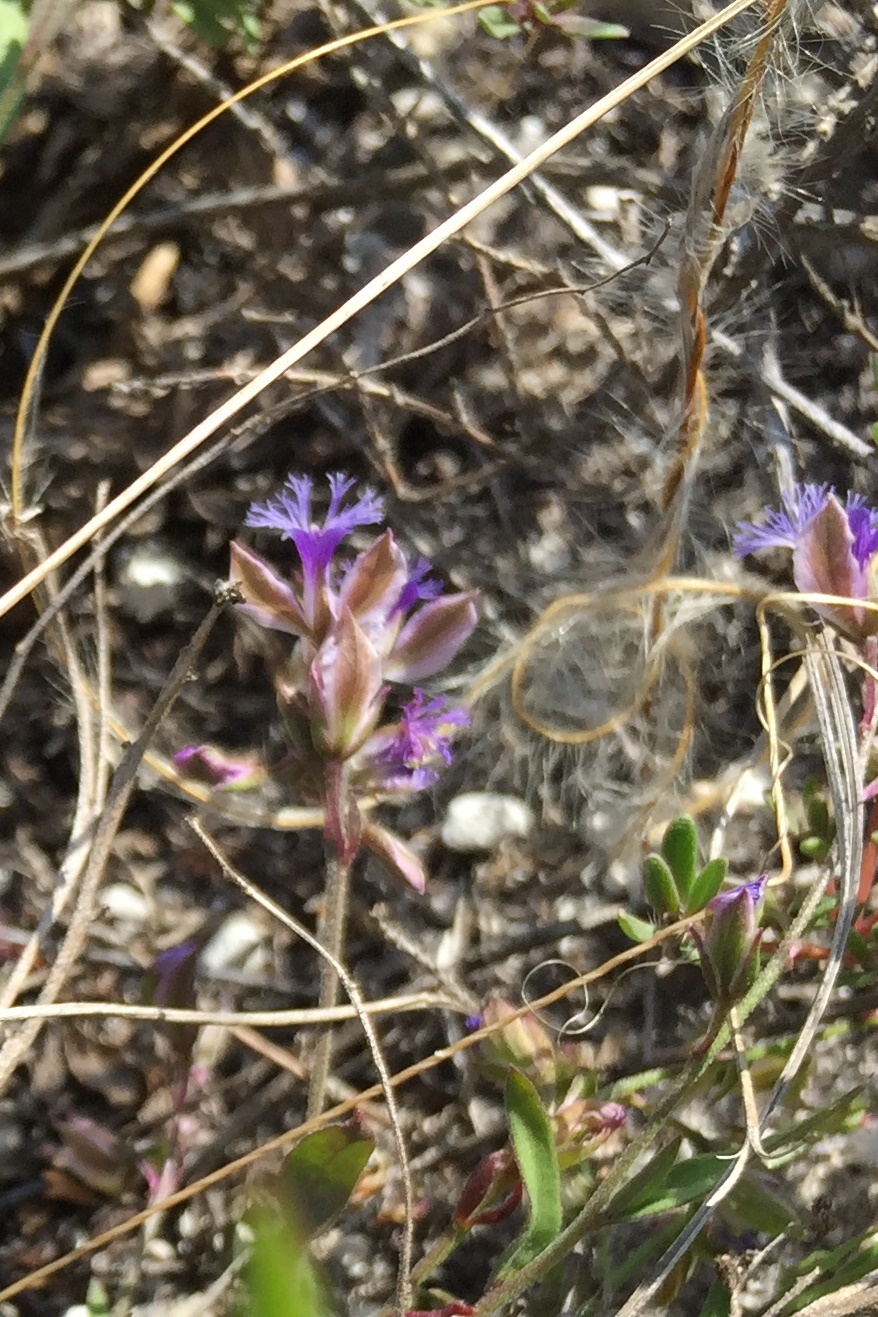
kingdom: Plantae
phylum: Tracheophyta
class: Magnoliopsida
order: Fabales
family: Polygalaceae
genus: Polygala
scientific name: Polygala sibirica
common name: Siberian polygala
